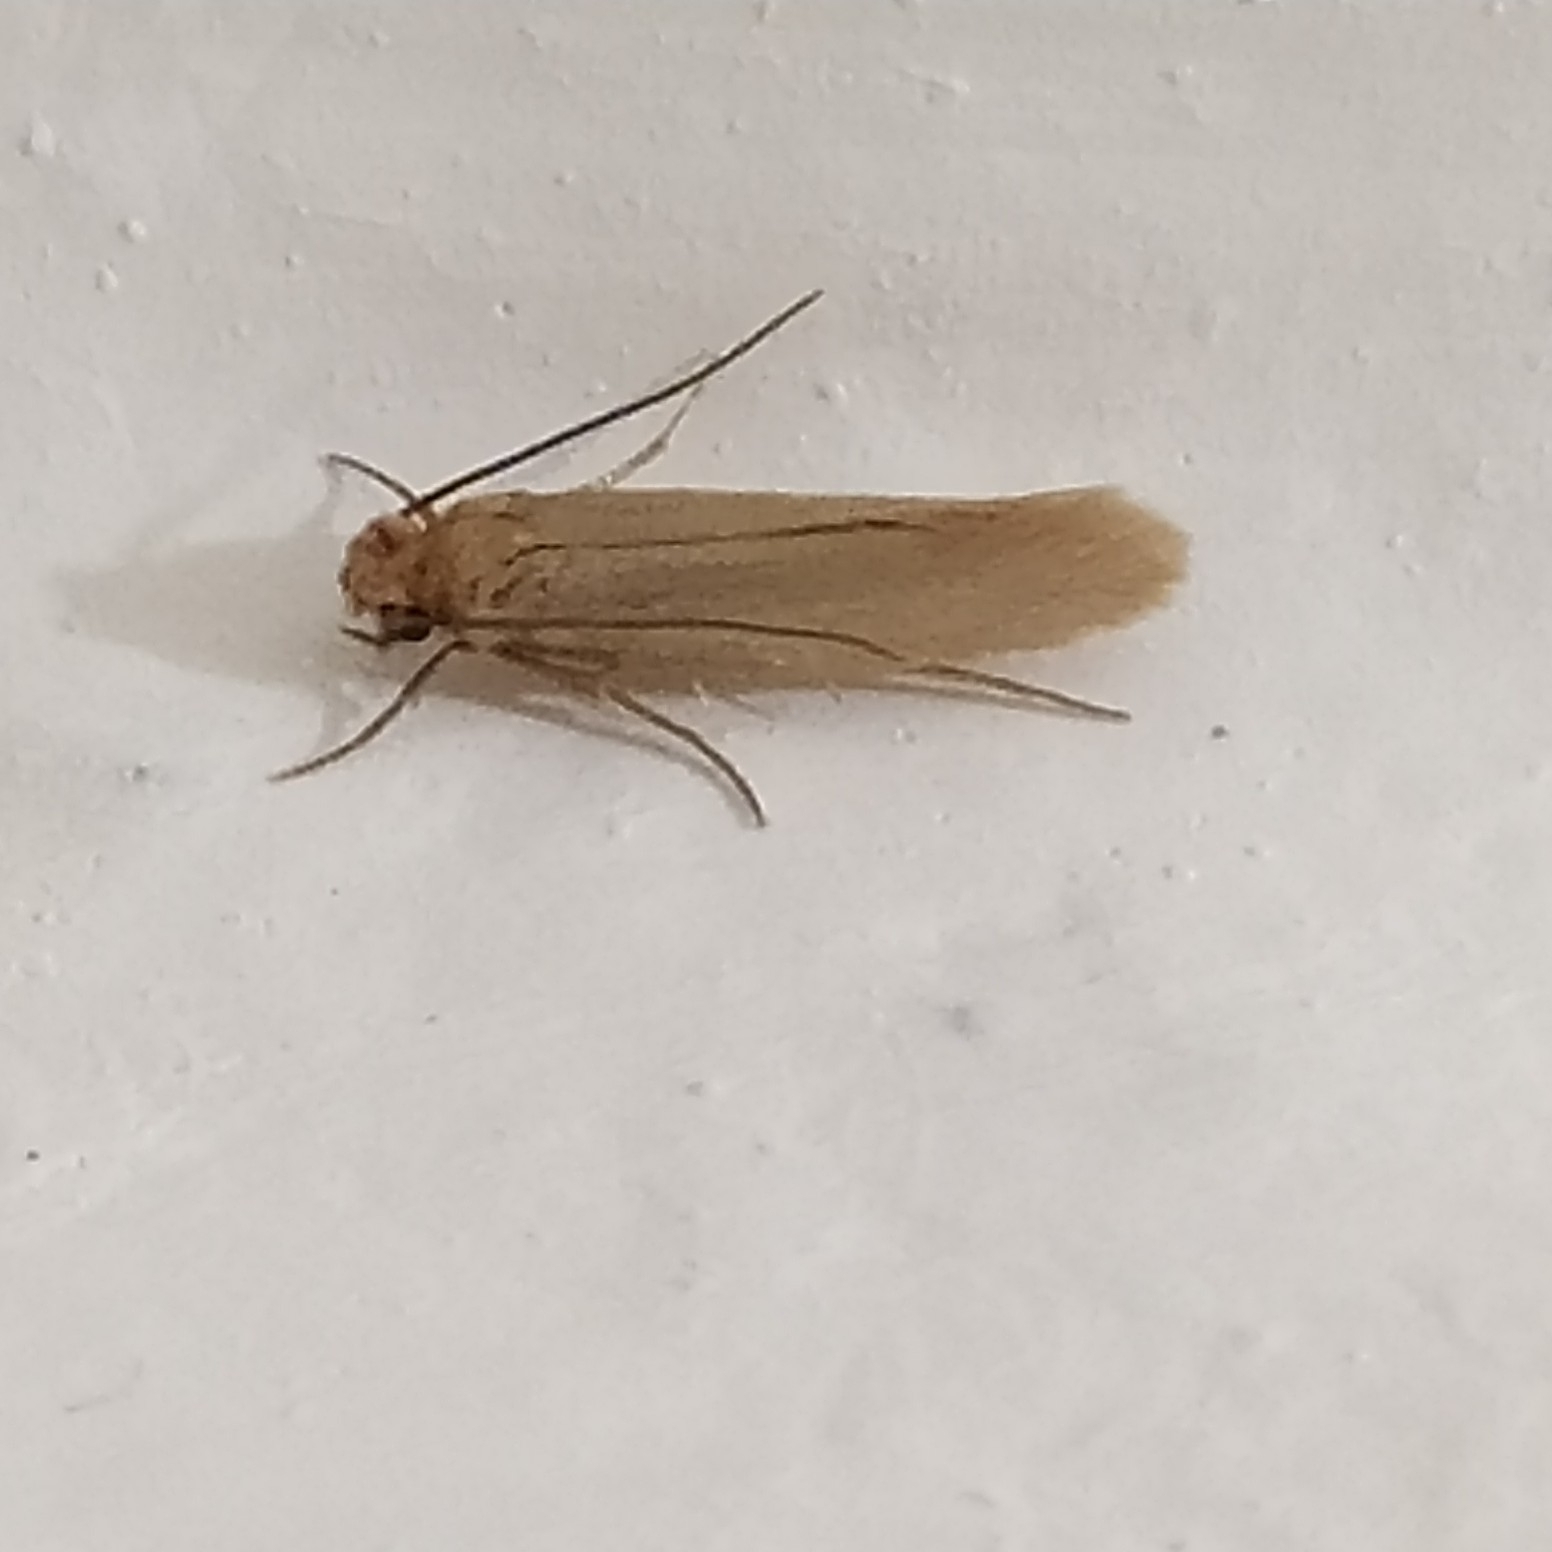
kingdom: Animalia
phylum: Arthropoda
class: Insecta
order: Lepidoptera
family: Tineidae
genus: Tineola
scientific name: Tineola bisselliella
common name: Webbing clothes moth
